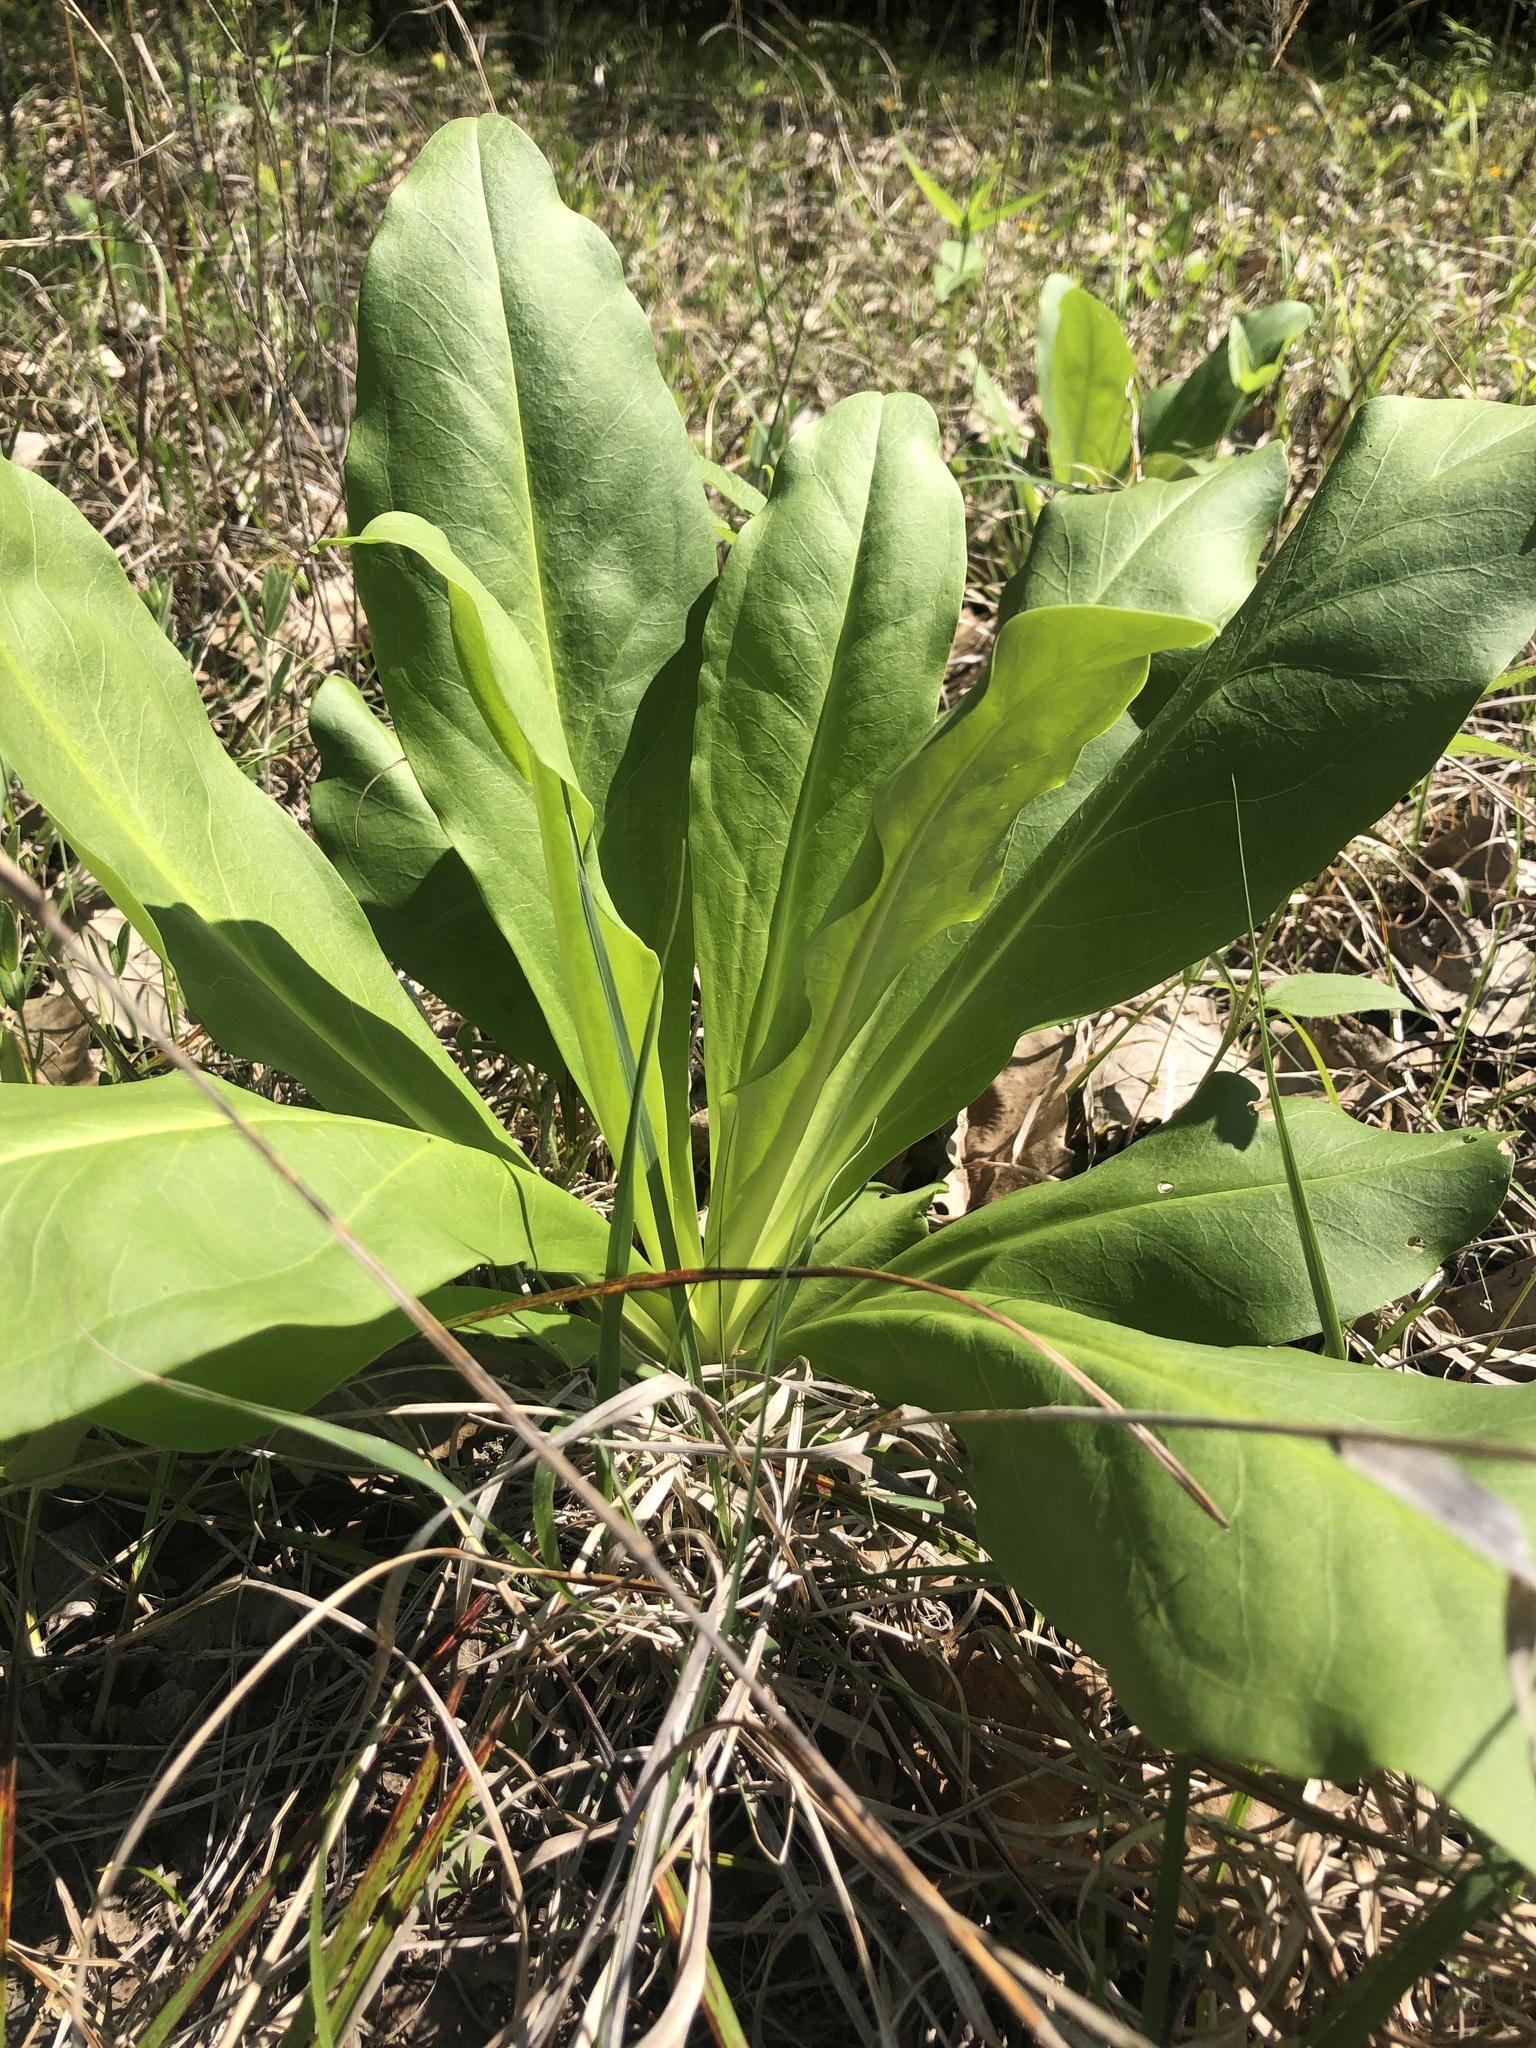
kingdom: Plantae
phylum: Tracheophyta
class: Magnoliopsida
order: Gentianales
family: Gentianaceae
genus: Frasera
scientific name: Frasera caroliniensis
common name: American columbo
